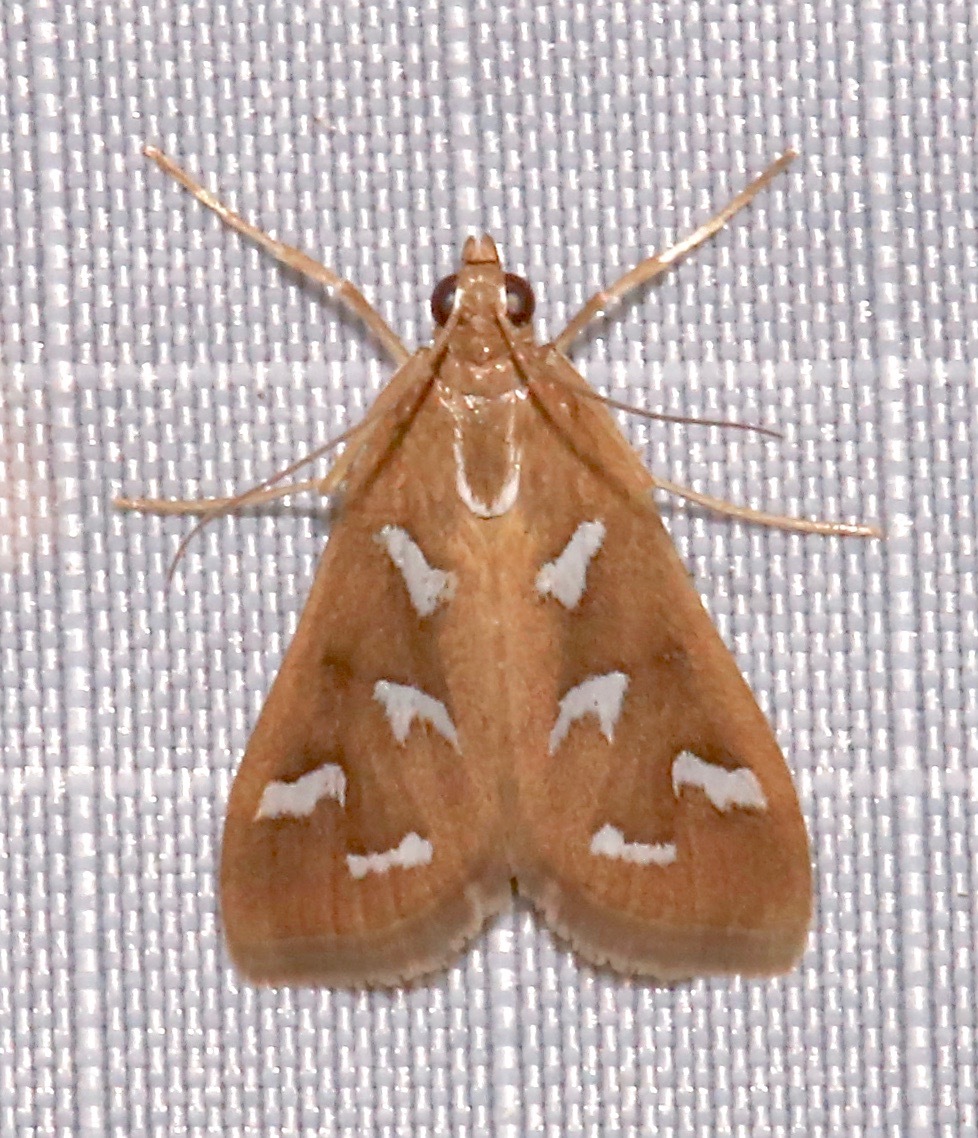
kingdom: Animalia
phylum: Arthropoda
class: Insecta
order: Lepidoptera
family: Crambidae
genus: Diastictis
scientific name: Diastictis fracturalis
